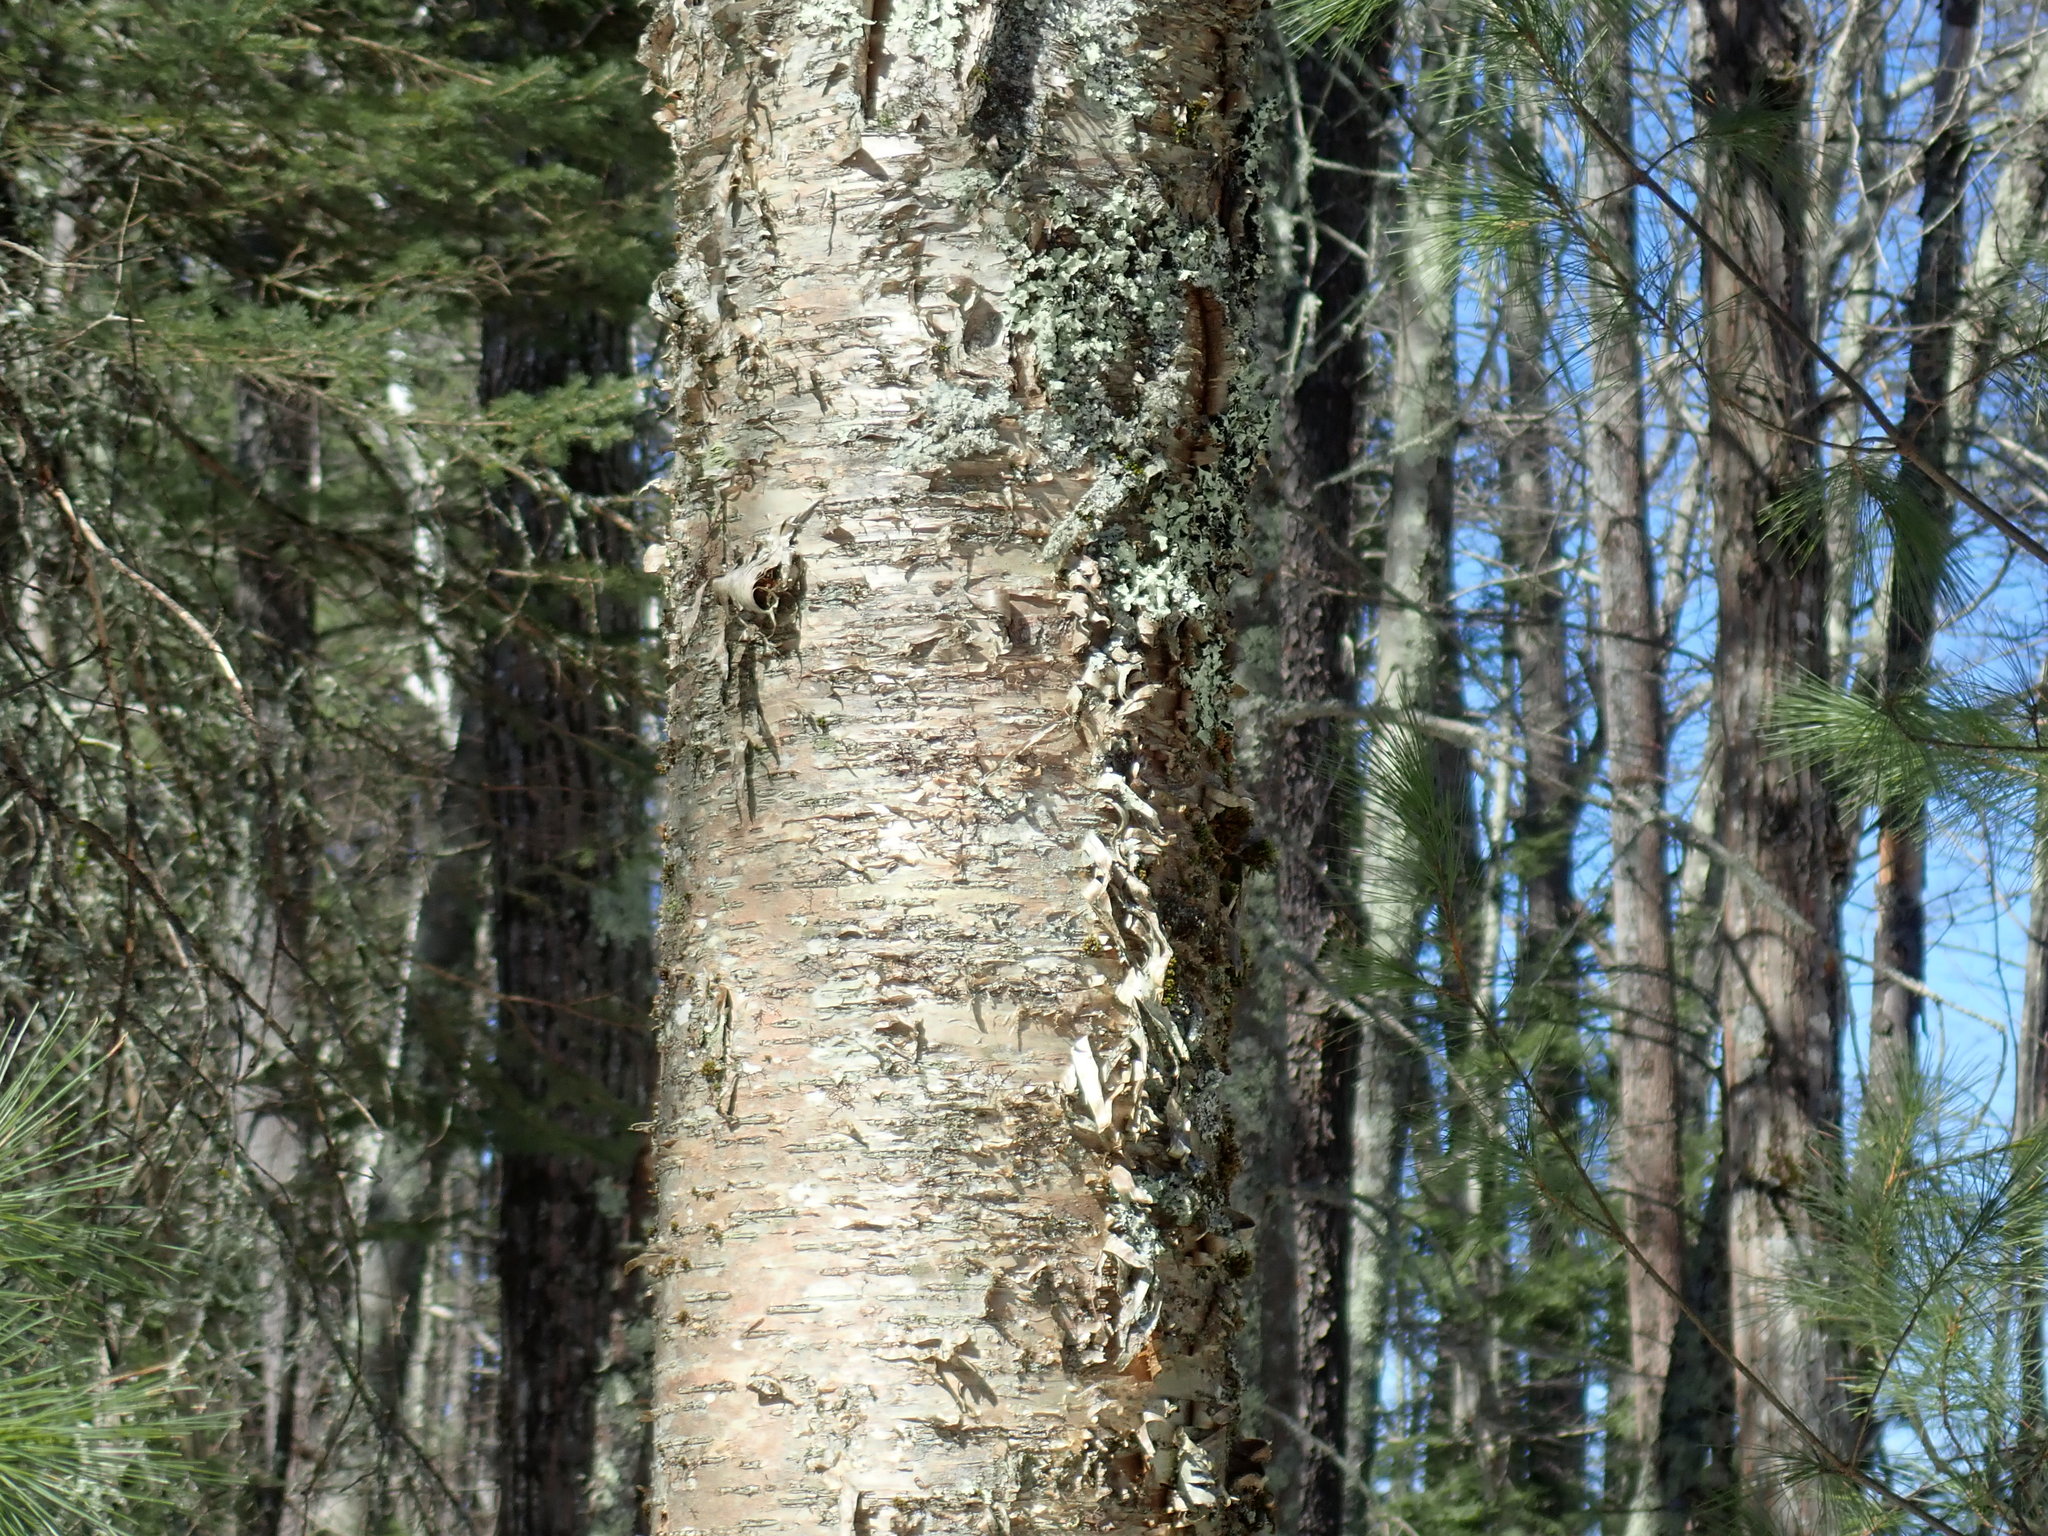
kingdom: Plantae
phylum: Tracheophyta
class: Magnoliopsida
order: Fagales
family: Betulaceae
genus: Betula
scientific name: Betula alleghaniensis
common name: Yellow birch
